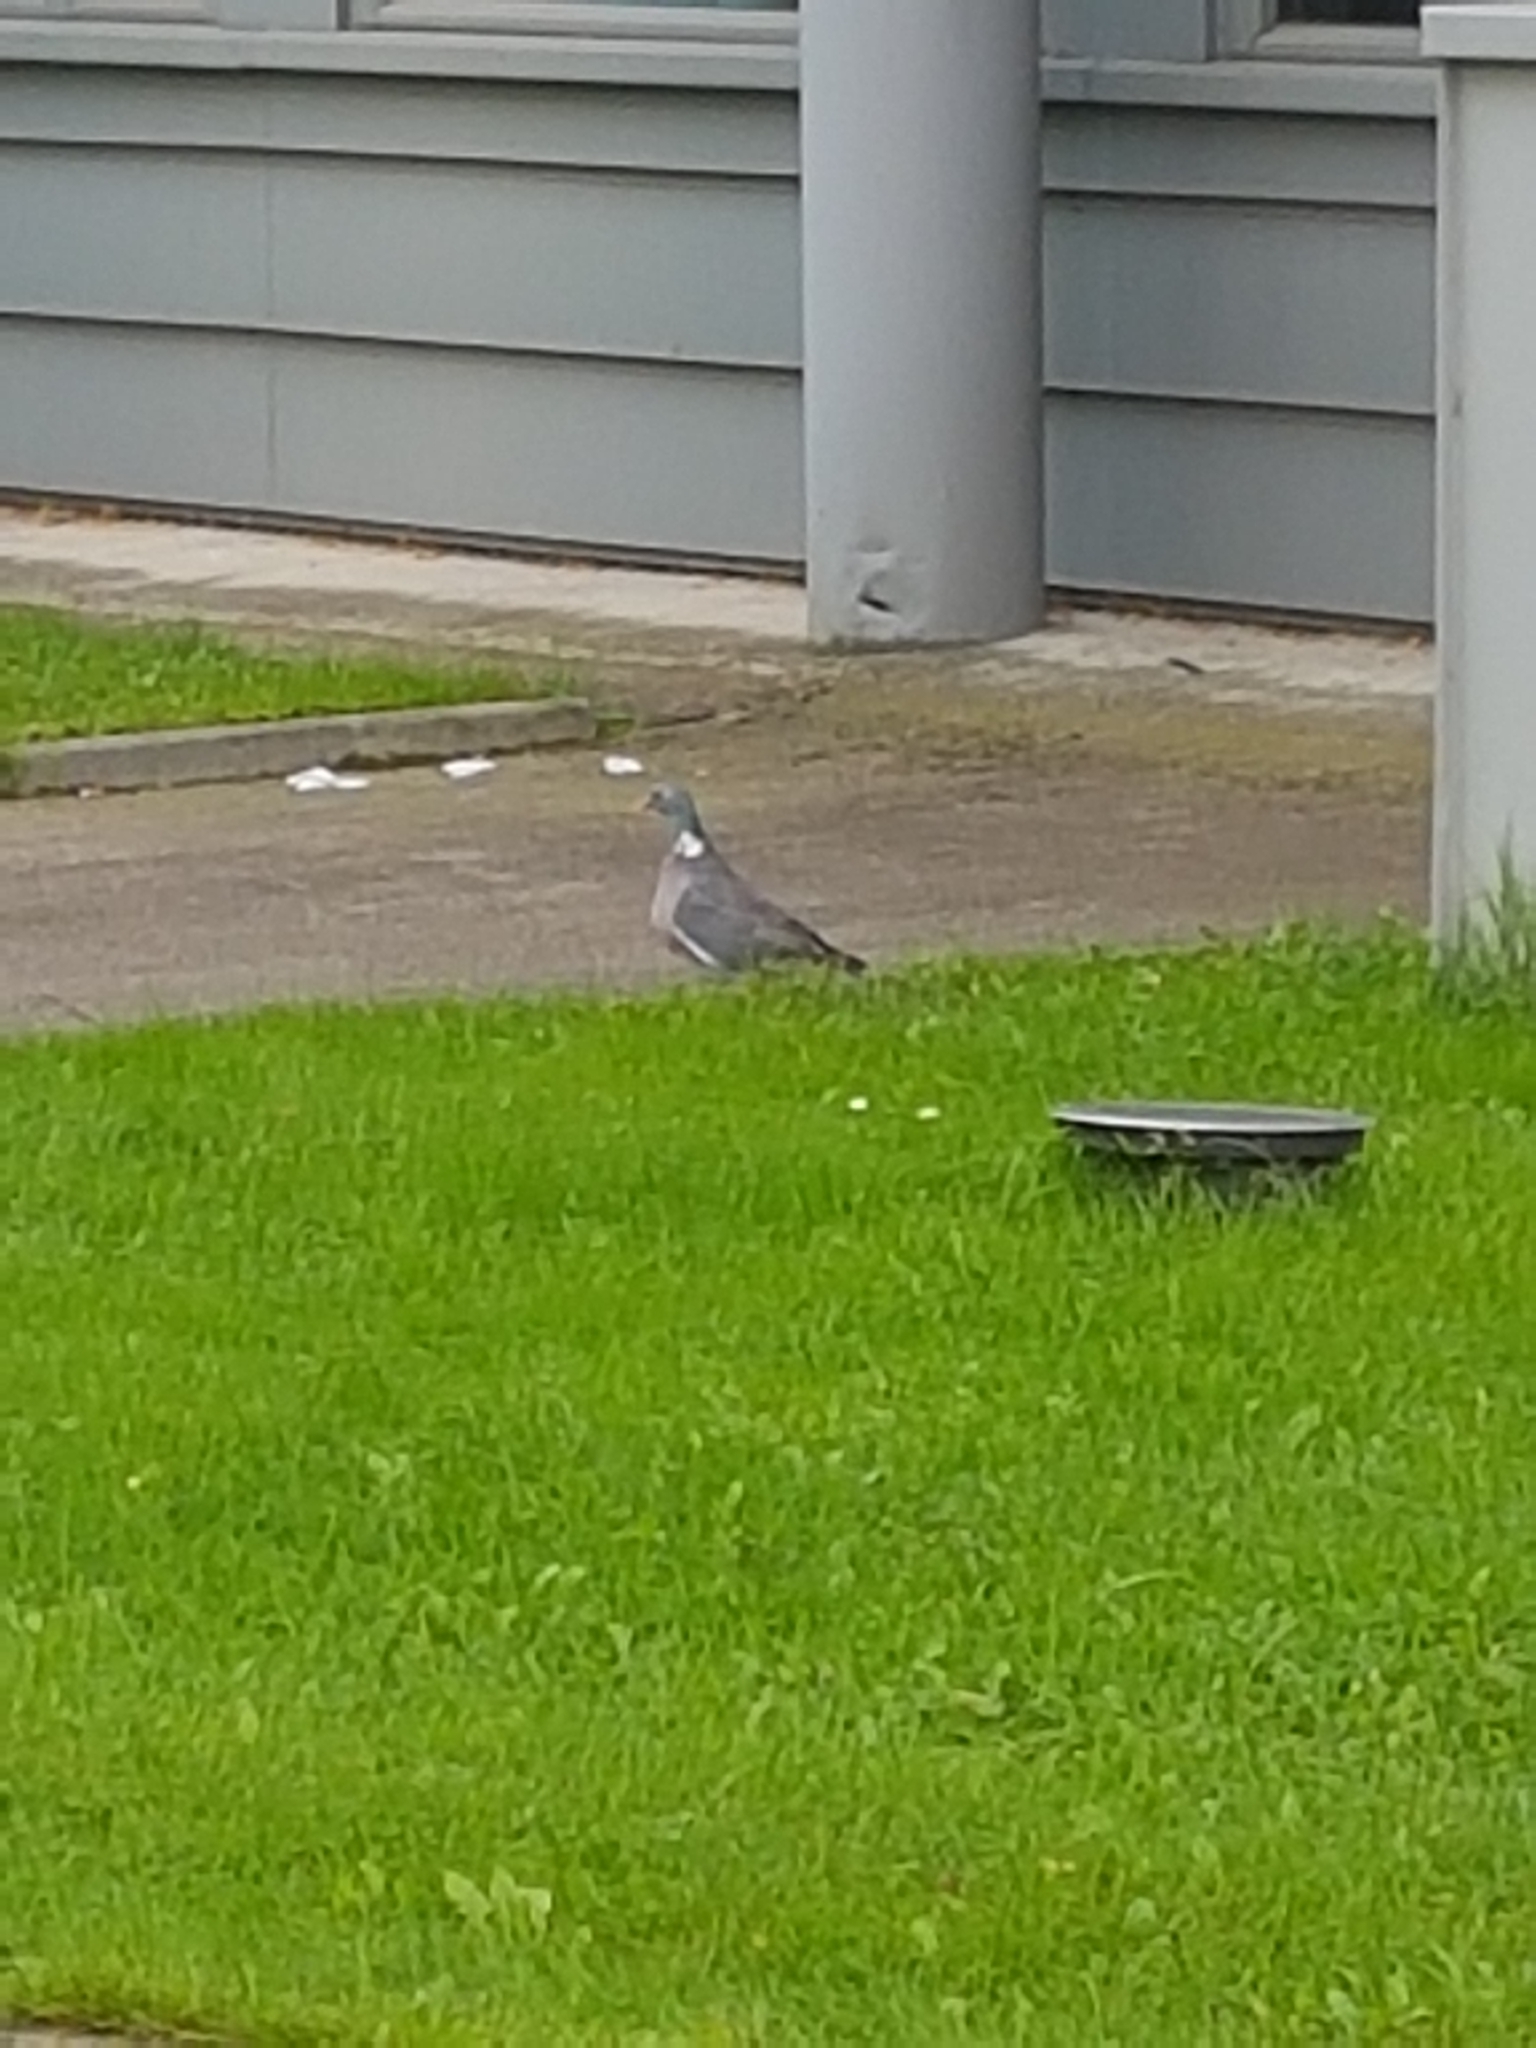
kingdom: Animalia
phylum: Chordata
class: Aves
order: Columbiformes
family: Columbidae
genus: Columba
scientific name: Columba palumbus
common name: Common wood pigeon
